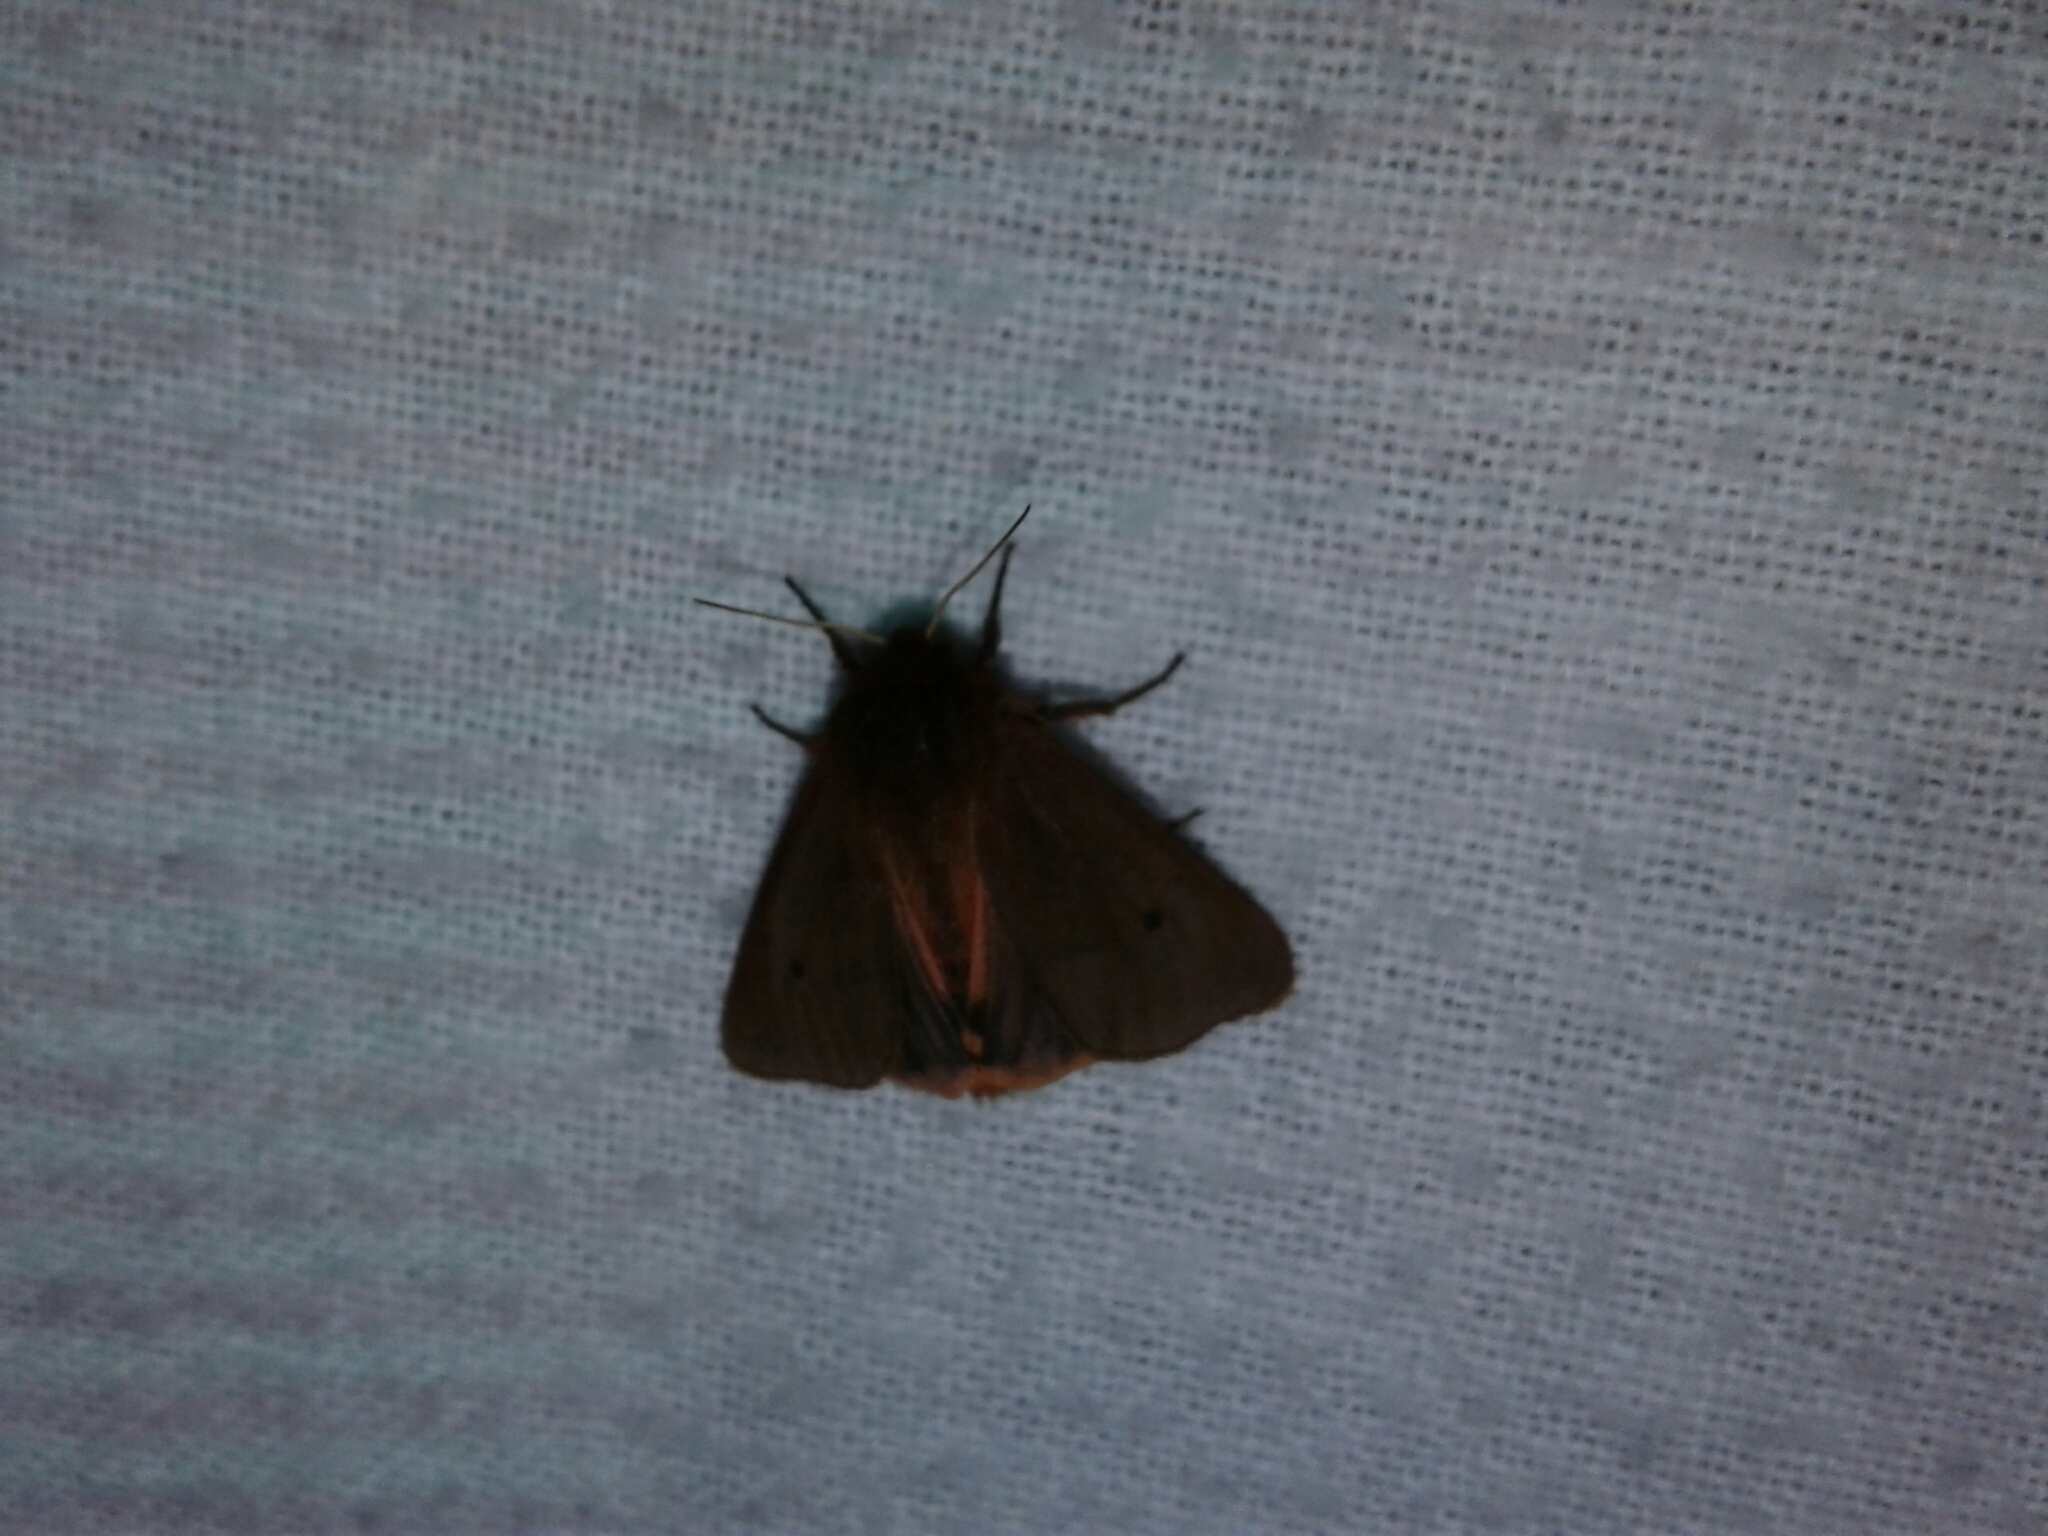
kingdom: Animalia
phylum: Arthropoda
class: Insecta
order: Lepidoptera
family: Erebidae
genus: Phragmatobia
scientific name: Phragmatobia fuliginosa
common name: Ruby tiger
